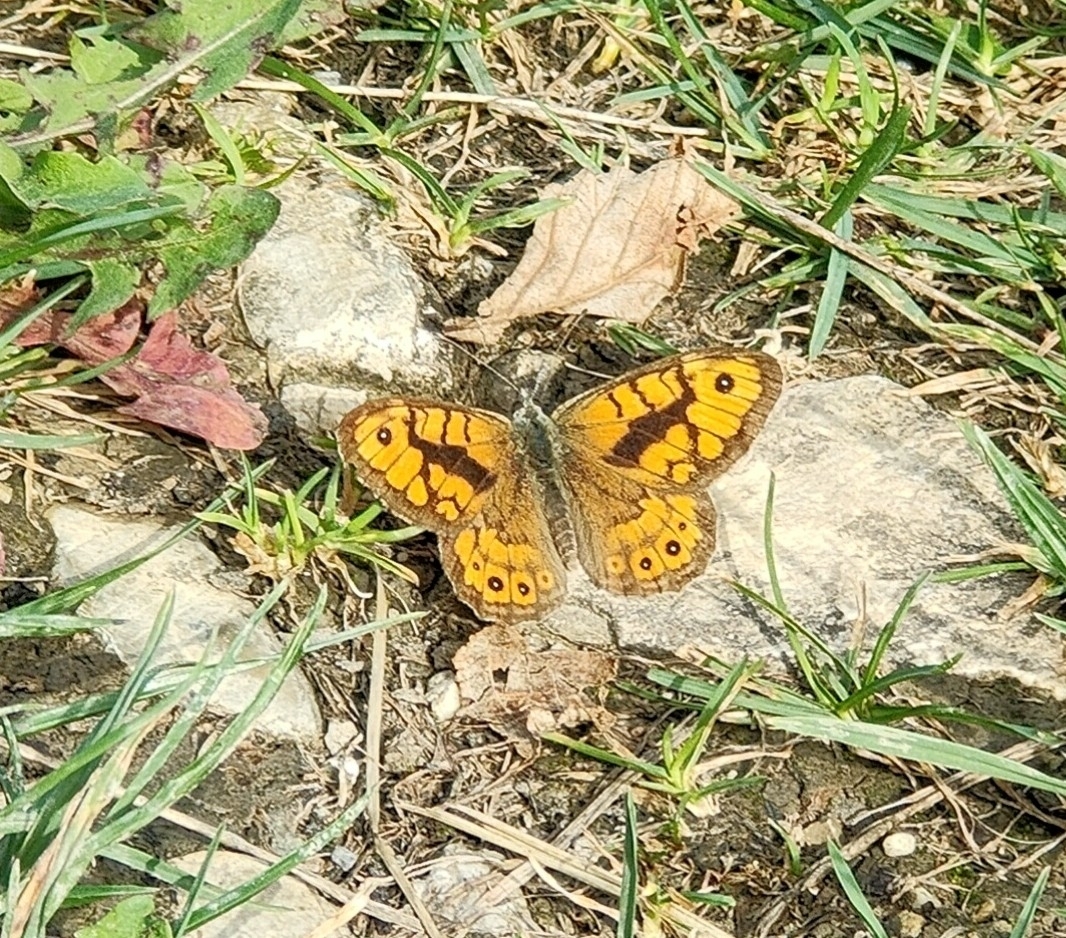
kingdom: Animalia
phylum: Arthropoda
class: Insecta
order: Lepidoptera
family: Nymphalidae
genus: Pararge
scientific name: Pararge Lasiommata megera
